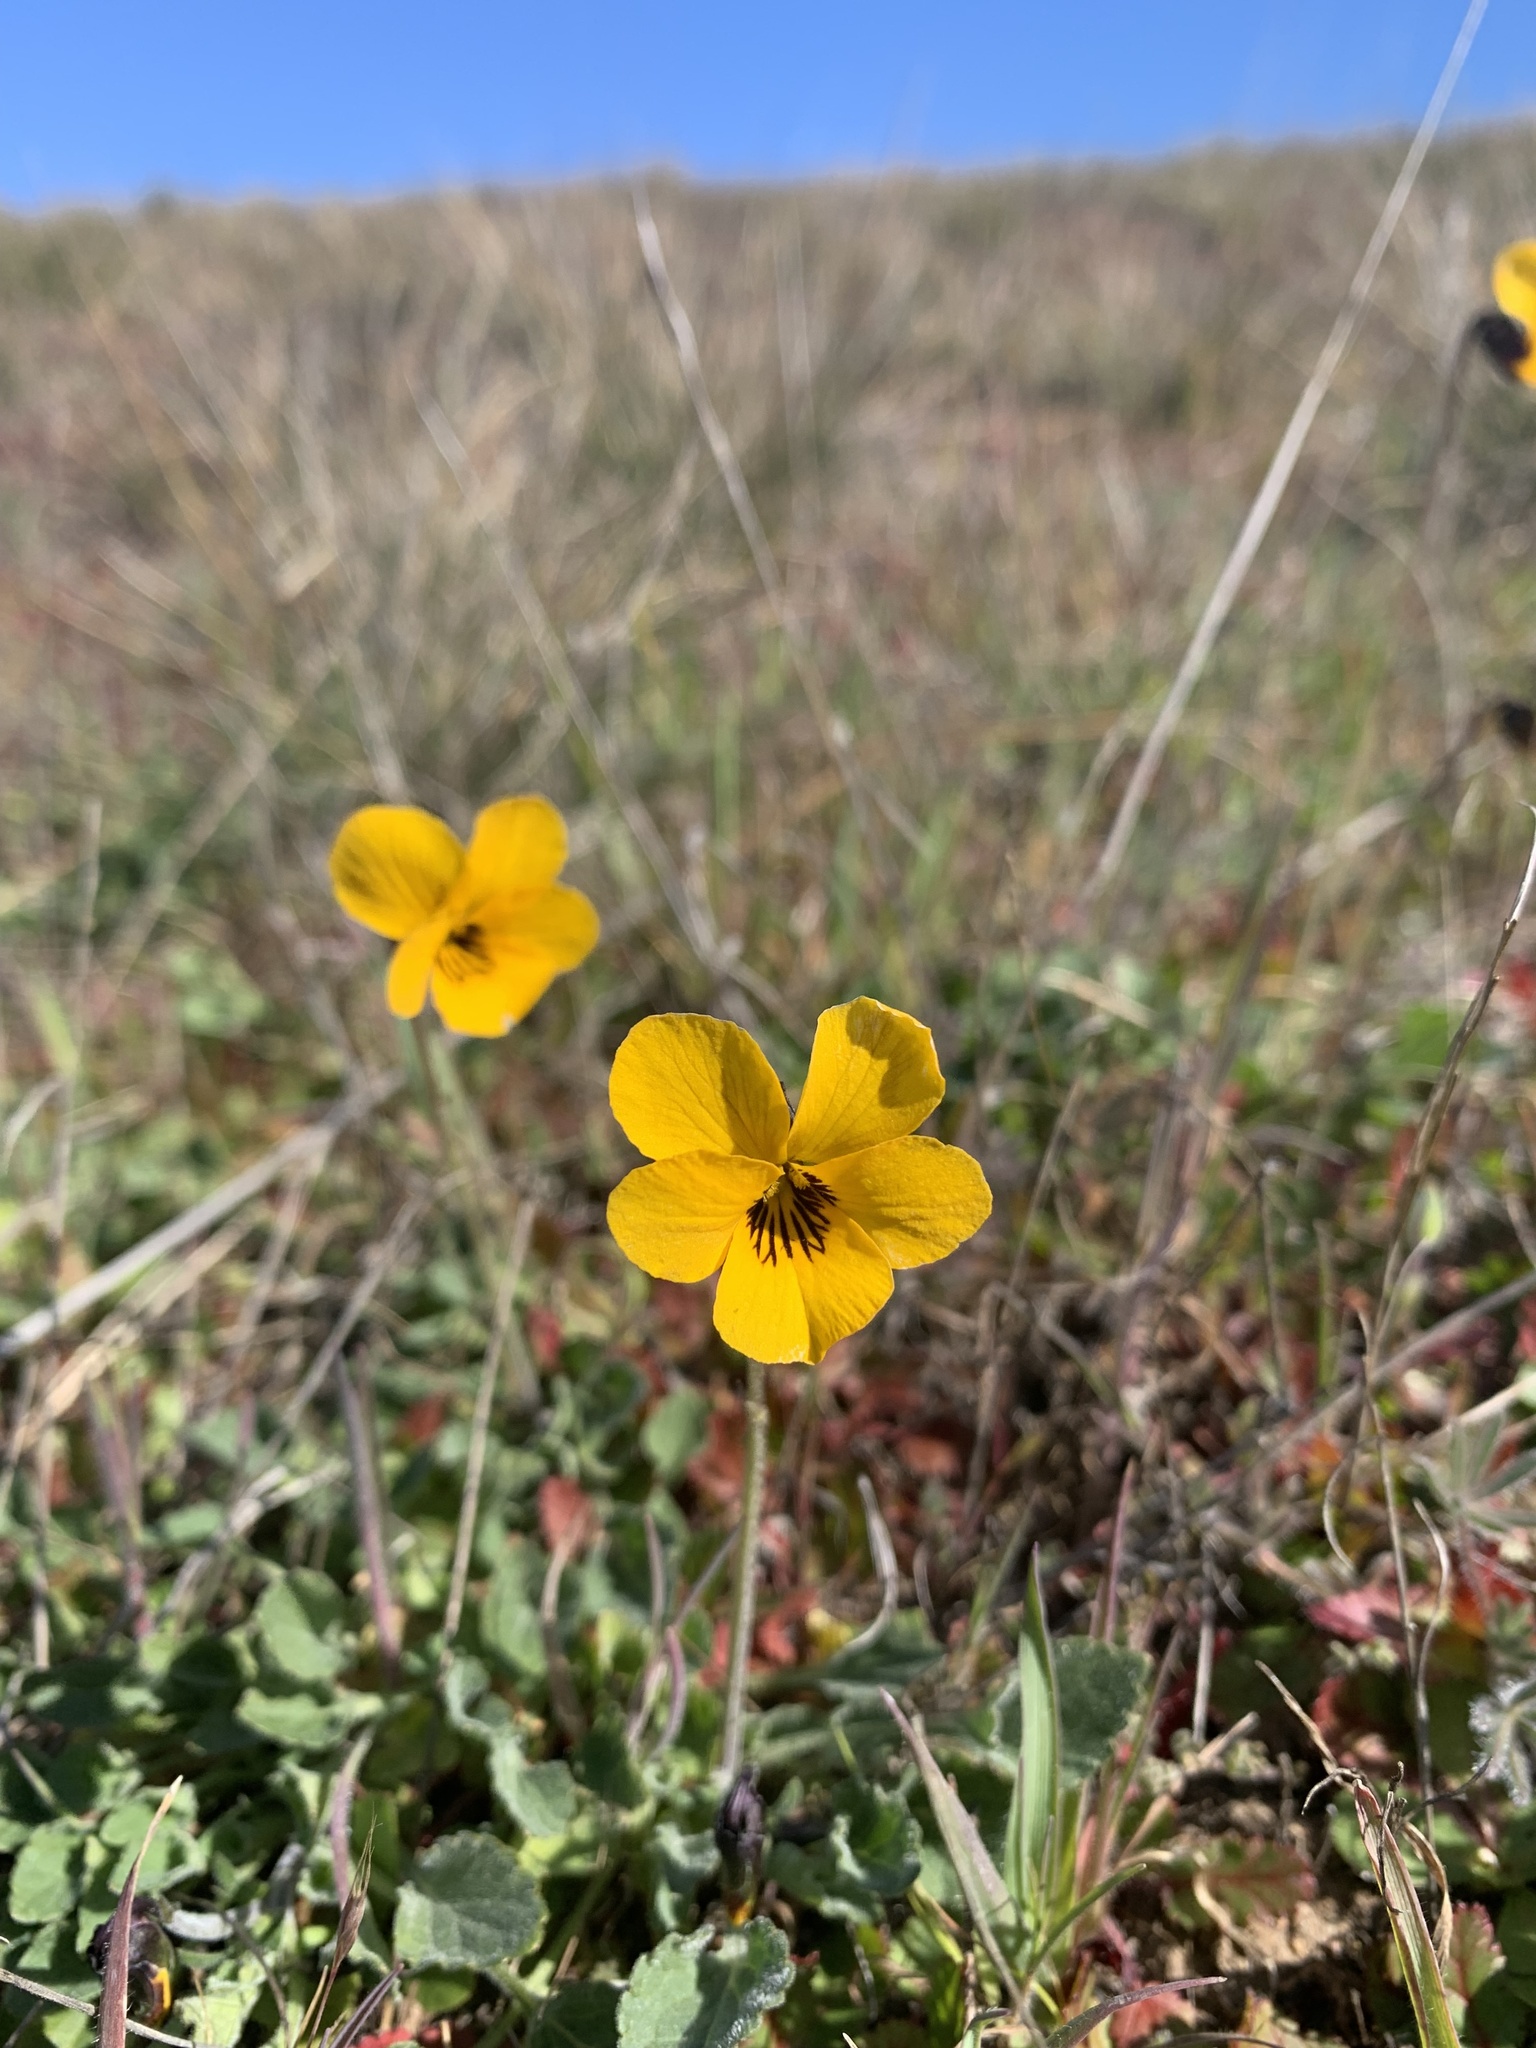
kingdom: Plantae
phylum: Tracheophyta
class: Magnoliopsida
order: Malpighiales
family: Violaceae
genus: Viola
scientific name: Viola pedunculata
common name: California golden violet
